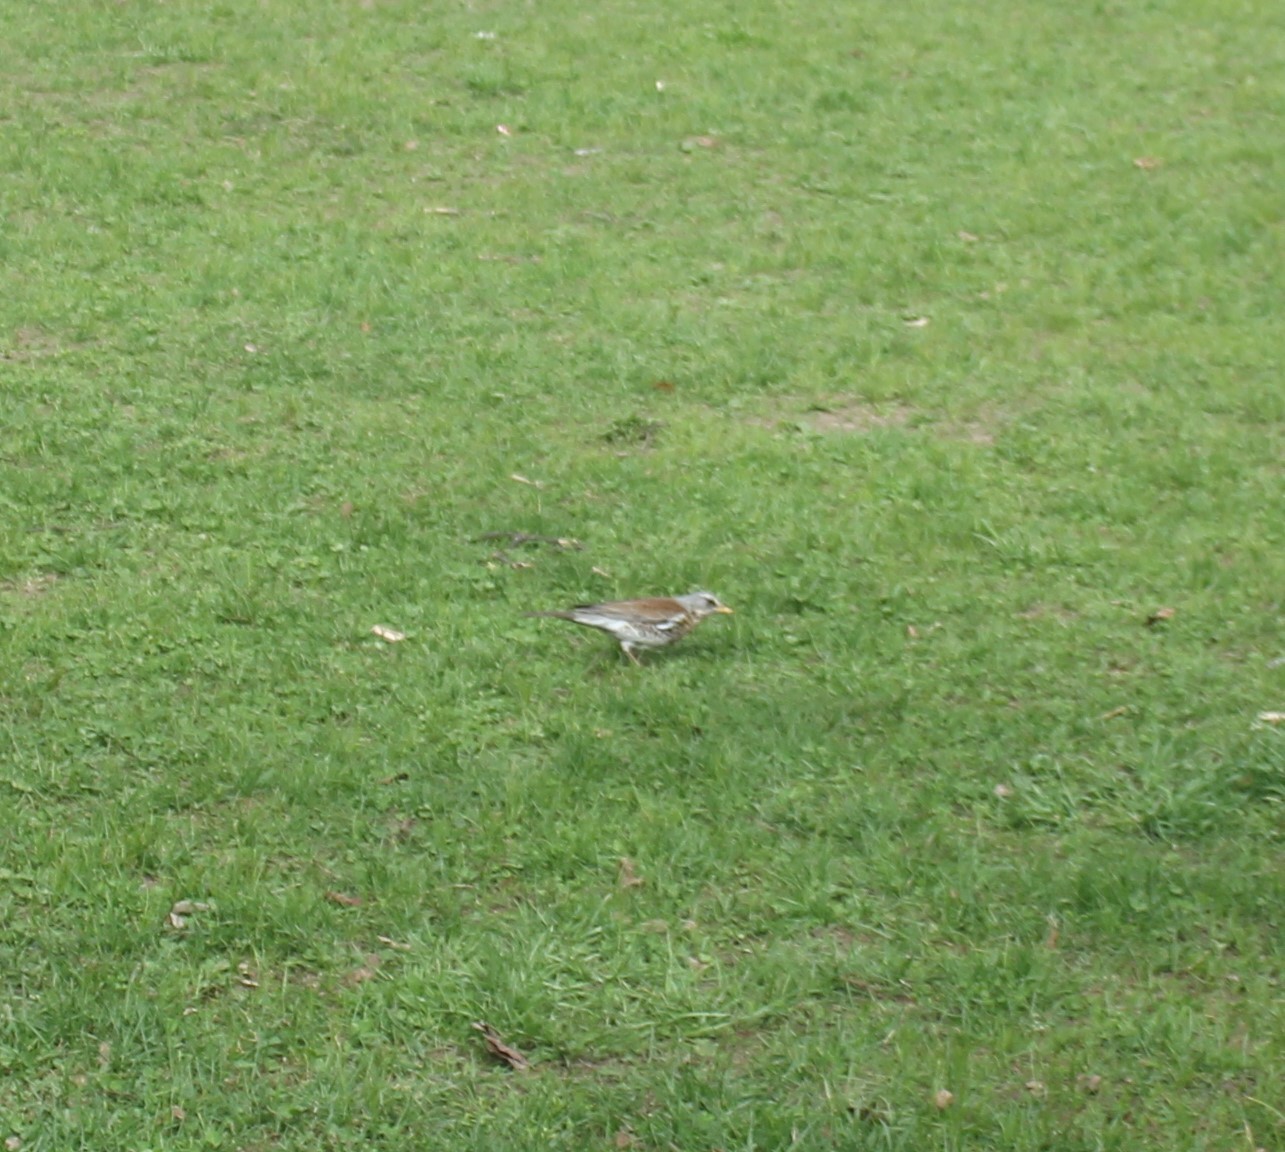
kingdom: Animalia
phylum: Chordata
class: Aves
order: Passeriformes
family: Turdidae
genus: Turdus
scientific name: Turdus pilaris
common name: Fieldfare
